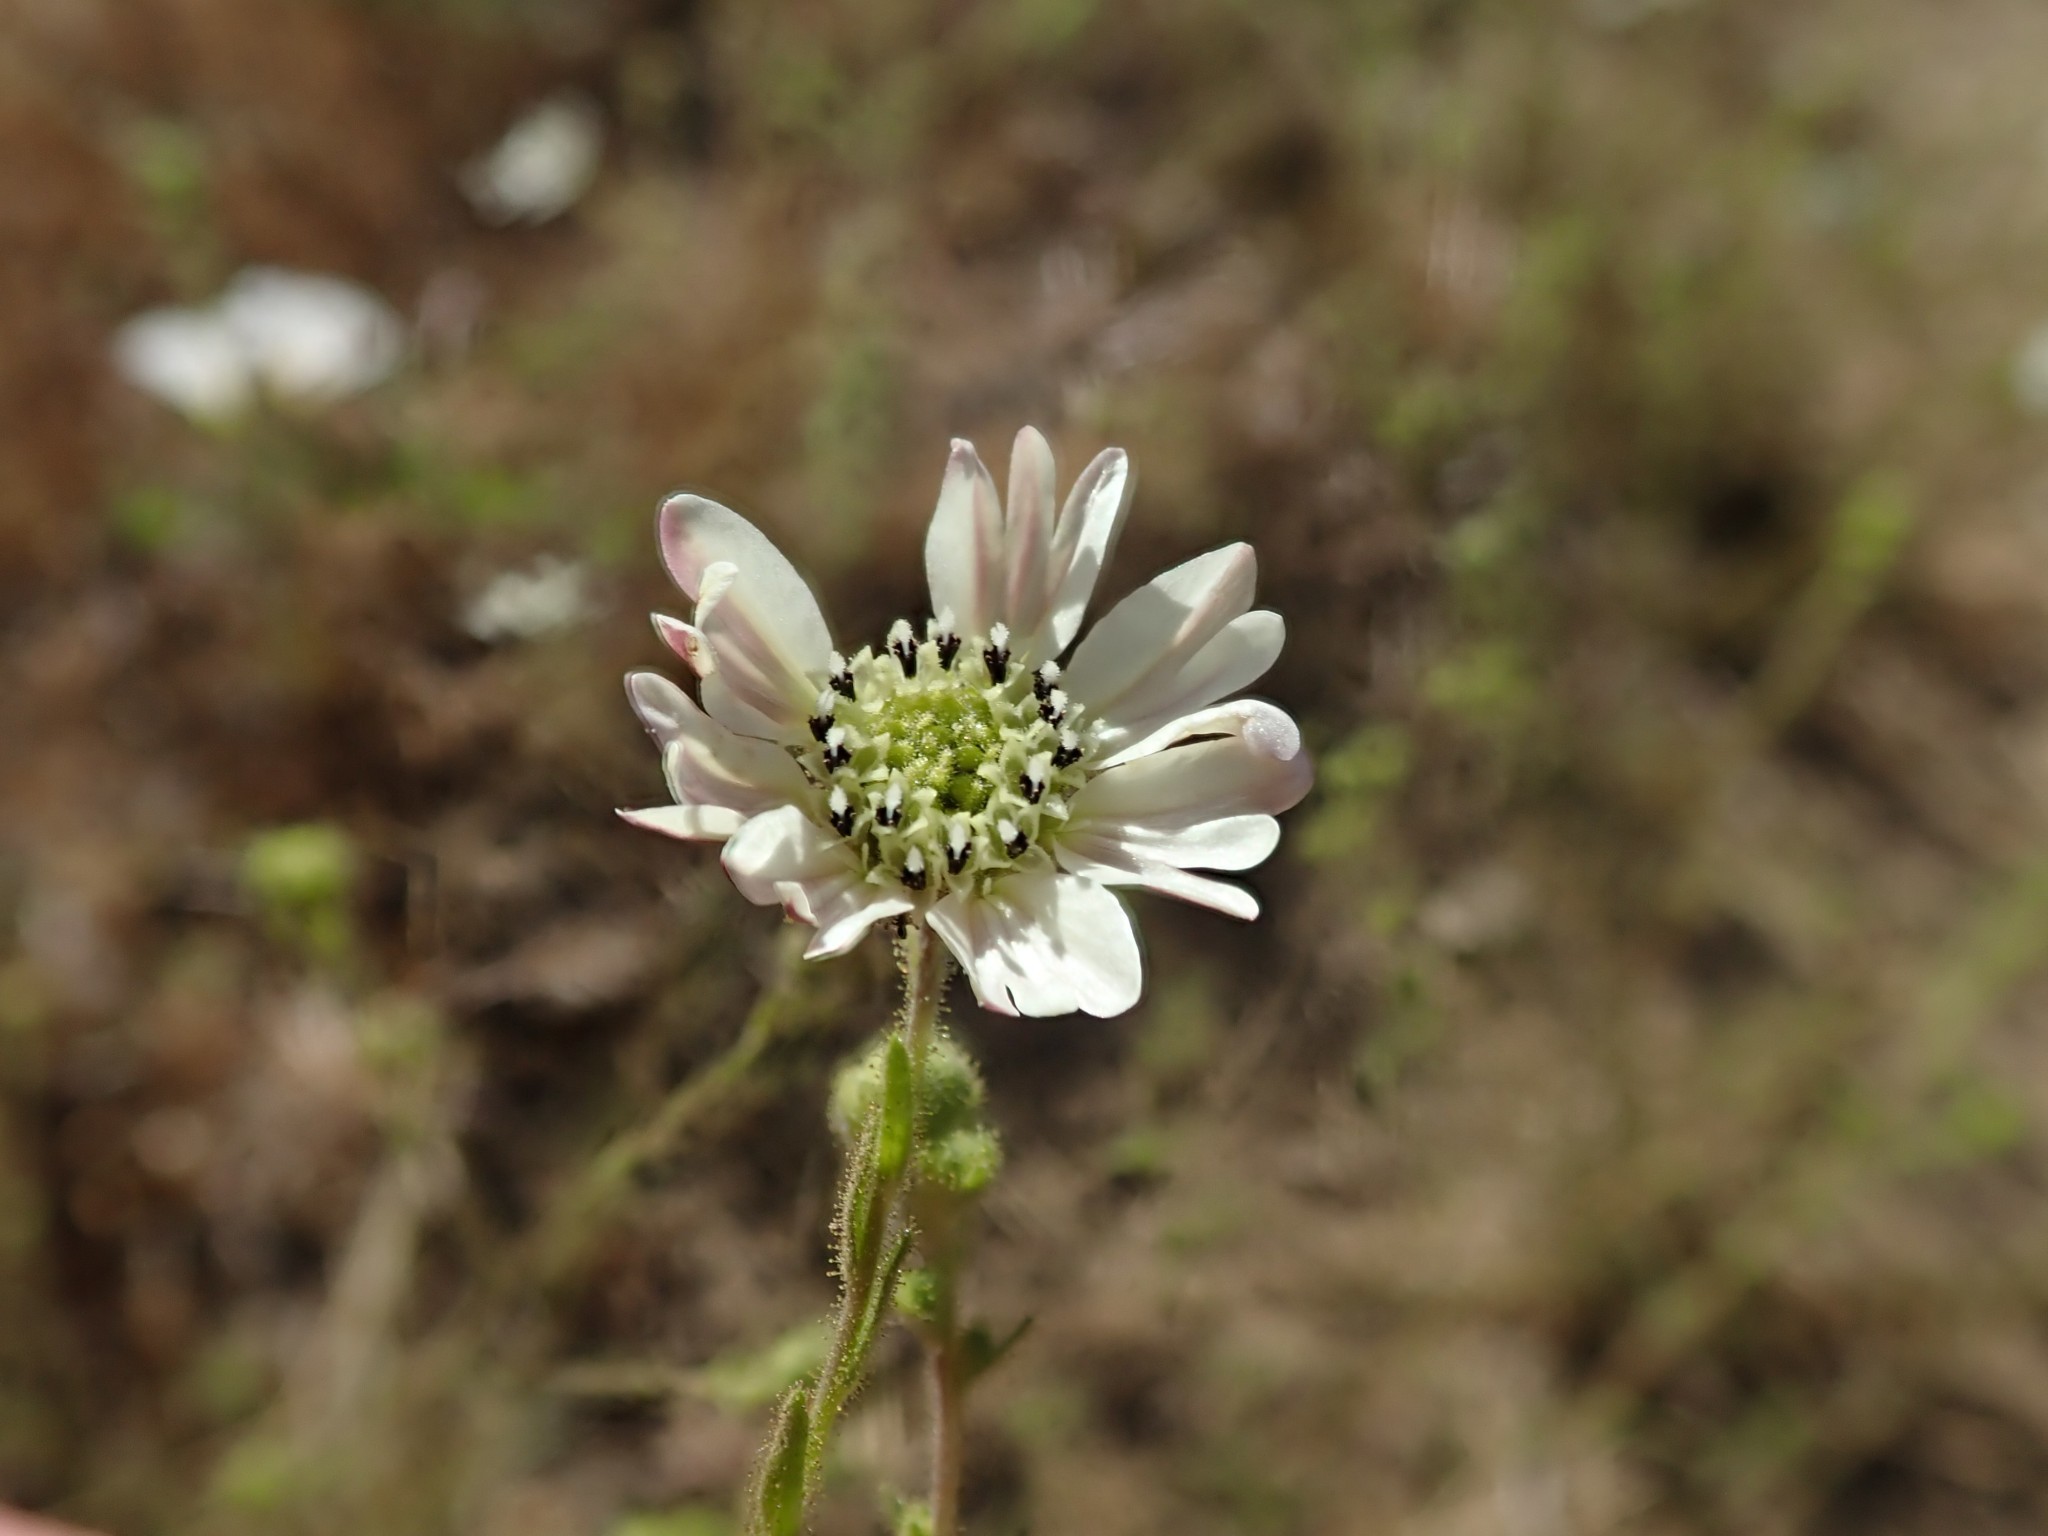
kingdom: Plantae
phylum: Tracheophyta
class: Magnoliopsida
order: Asterales
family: Asteraceae
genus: Hemizonia
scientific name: Hemizonia congesta
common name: Hayfield tarweed
